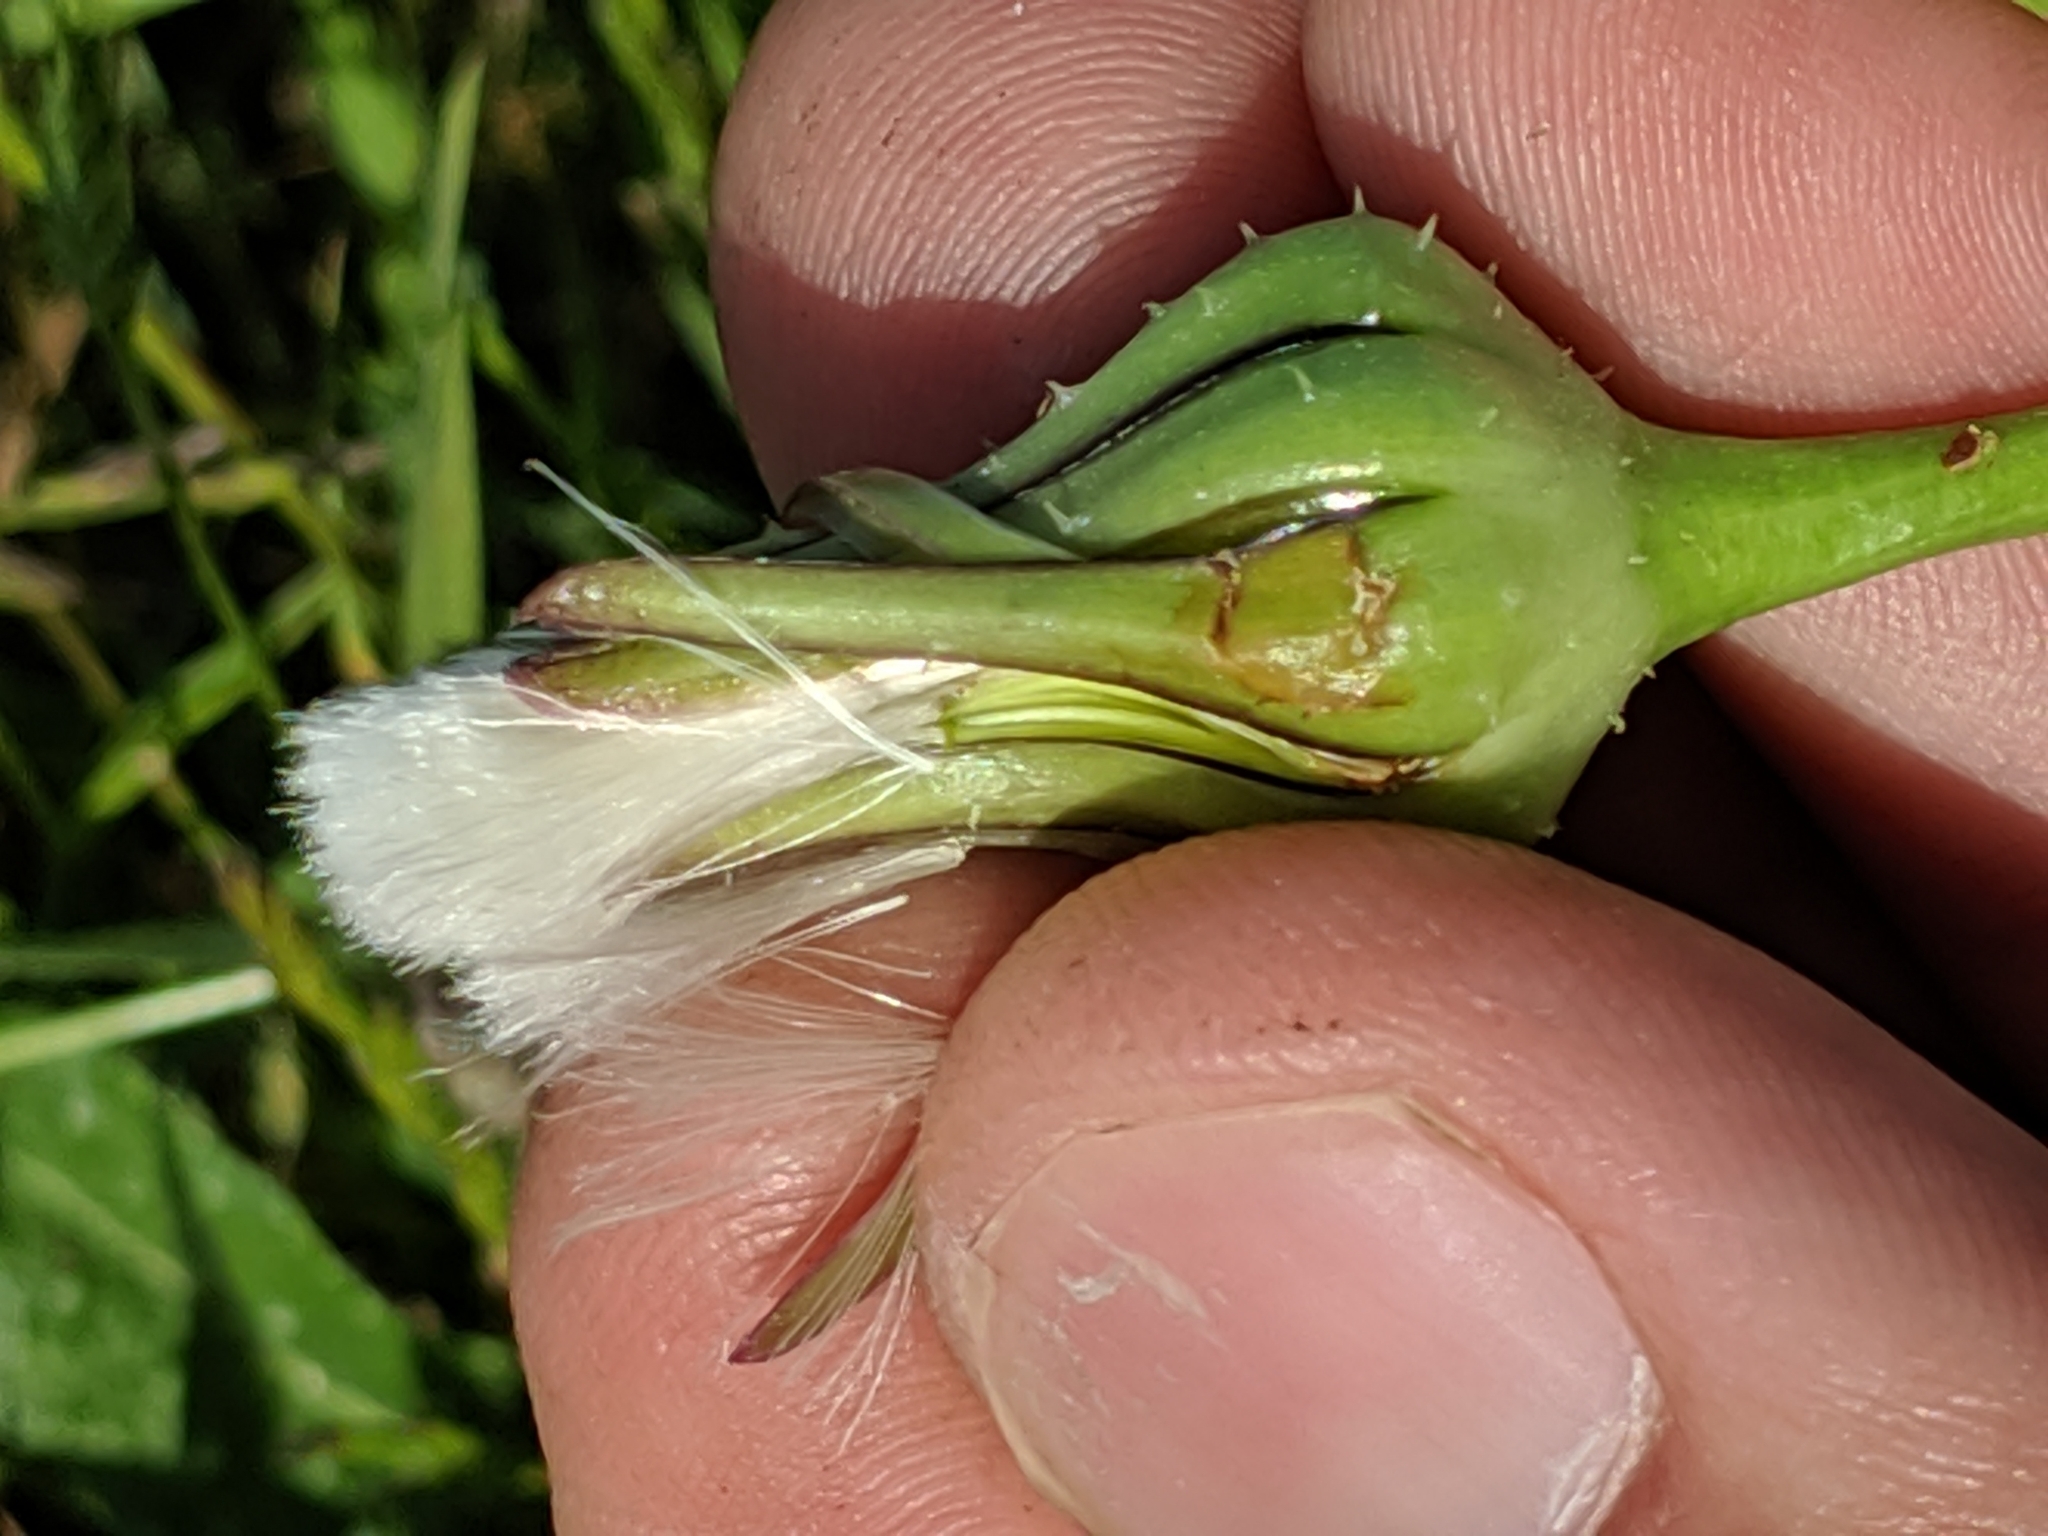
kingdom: Plantae
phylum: Tracheophyta
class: Magnoliopsida
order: Asterales
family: Asteraceae
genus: Urospermum
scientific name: Urospermum picroides
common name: False hawkbit
